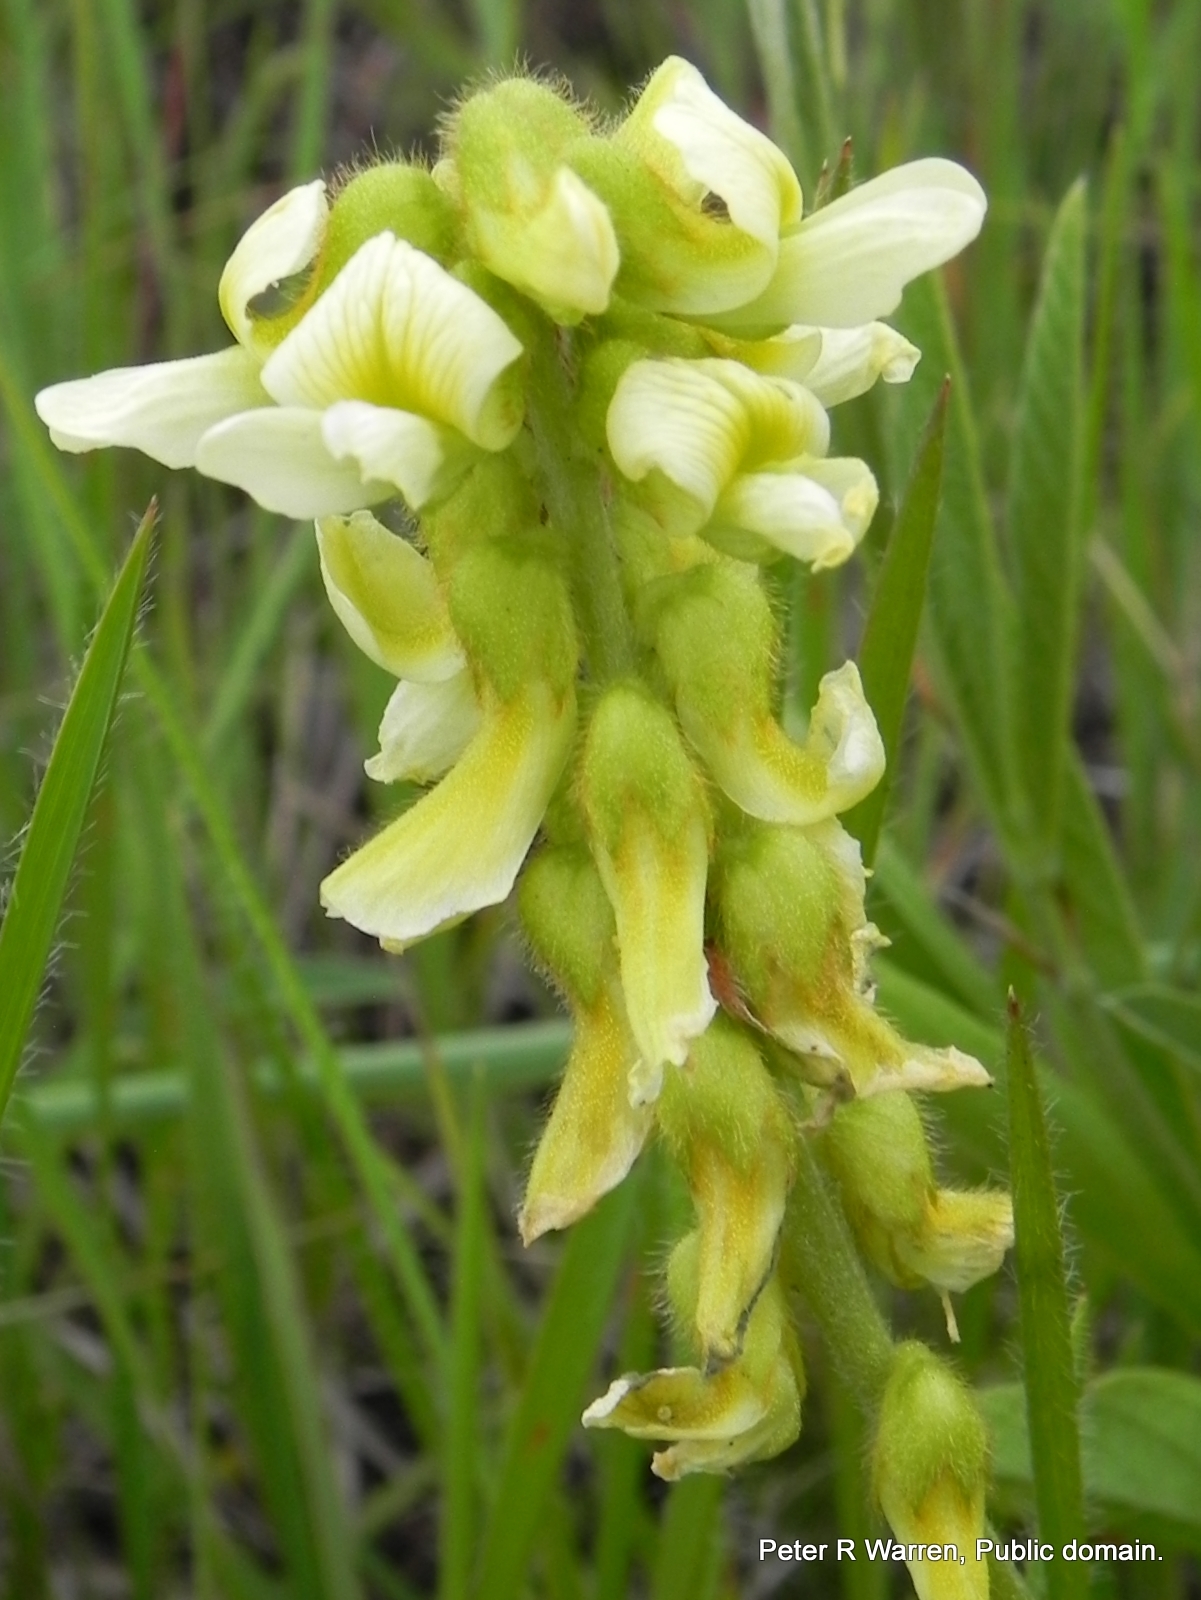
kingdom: Plantae
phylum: Tracheophyta
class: Magnoliopsida
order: Fabales
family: Fabaceae
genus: Eriosema
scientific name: Eriosema kraussianum
